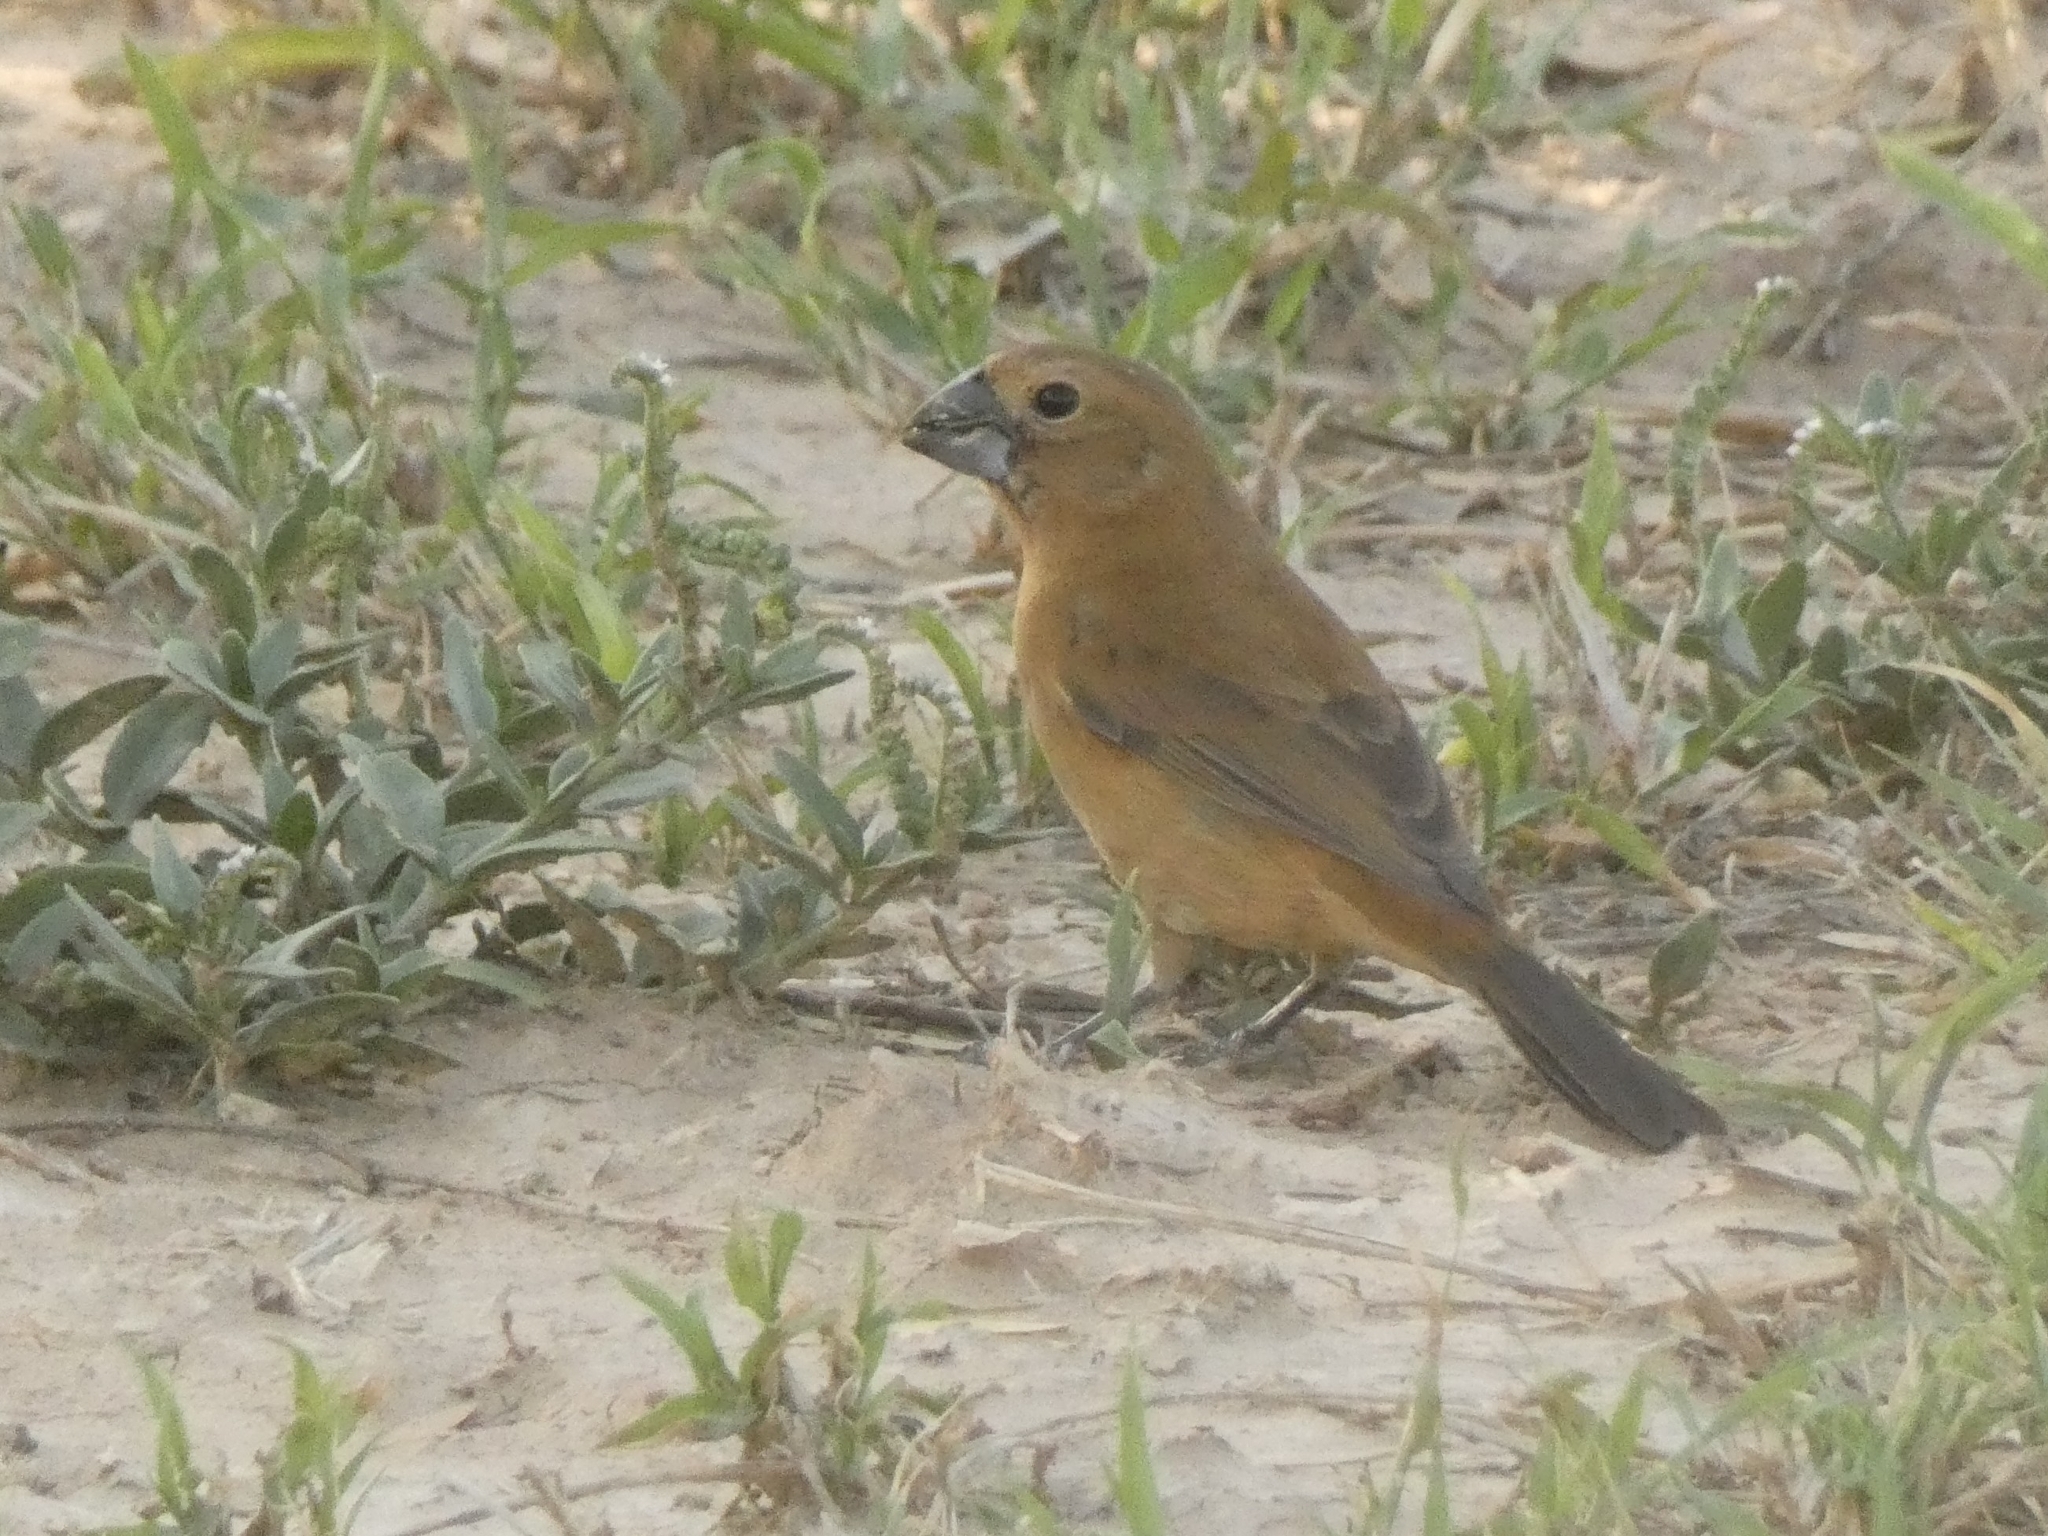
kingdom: Animalia
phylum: Chordata
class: Aves
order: Passeriformes
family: Cardinalidae
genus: Cyanoloxia
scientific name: Cyanoloxia brissonii
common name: Ultramarine grosbeak
